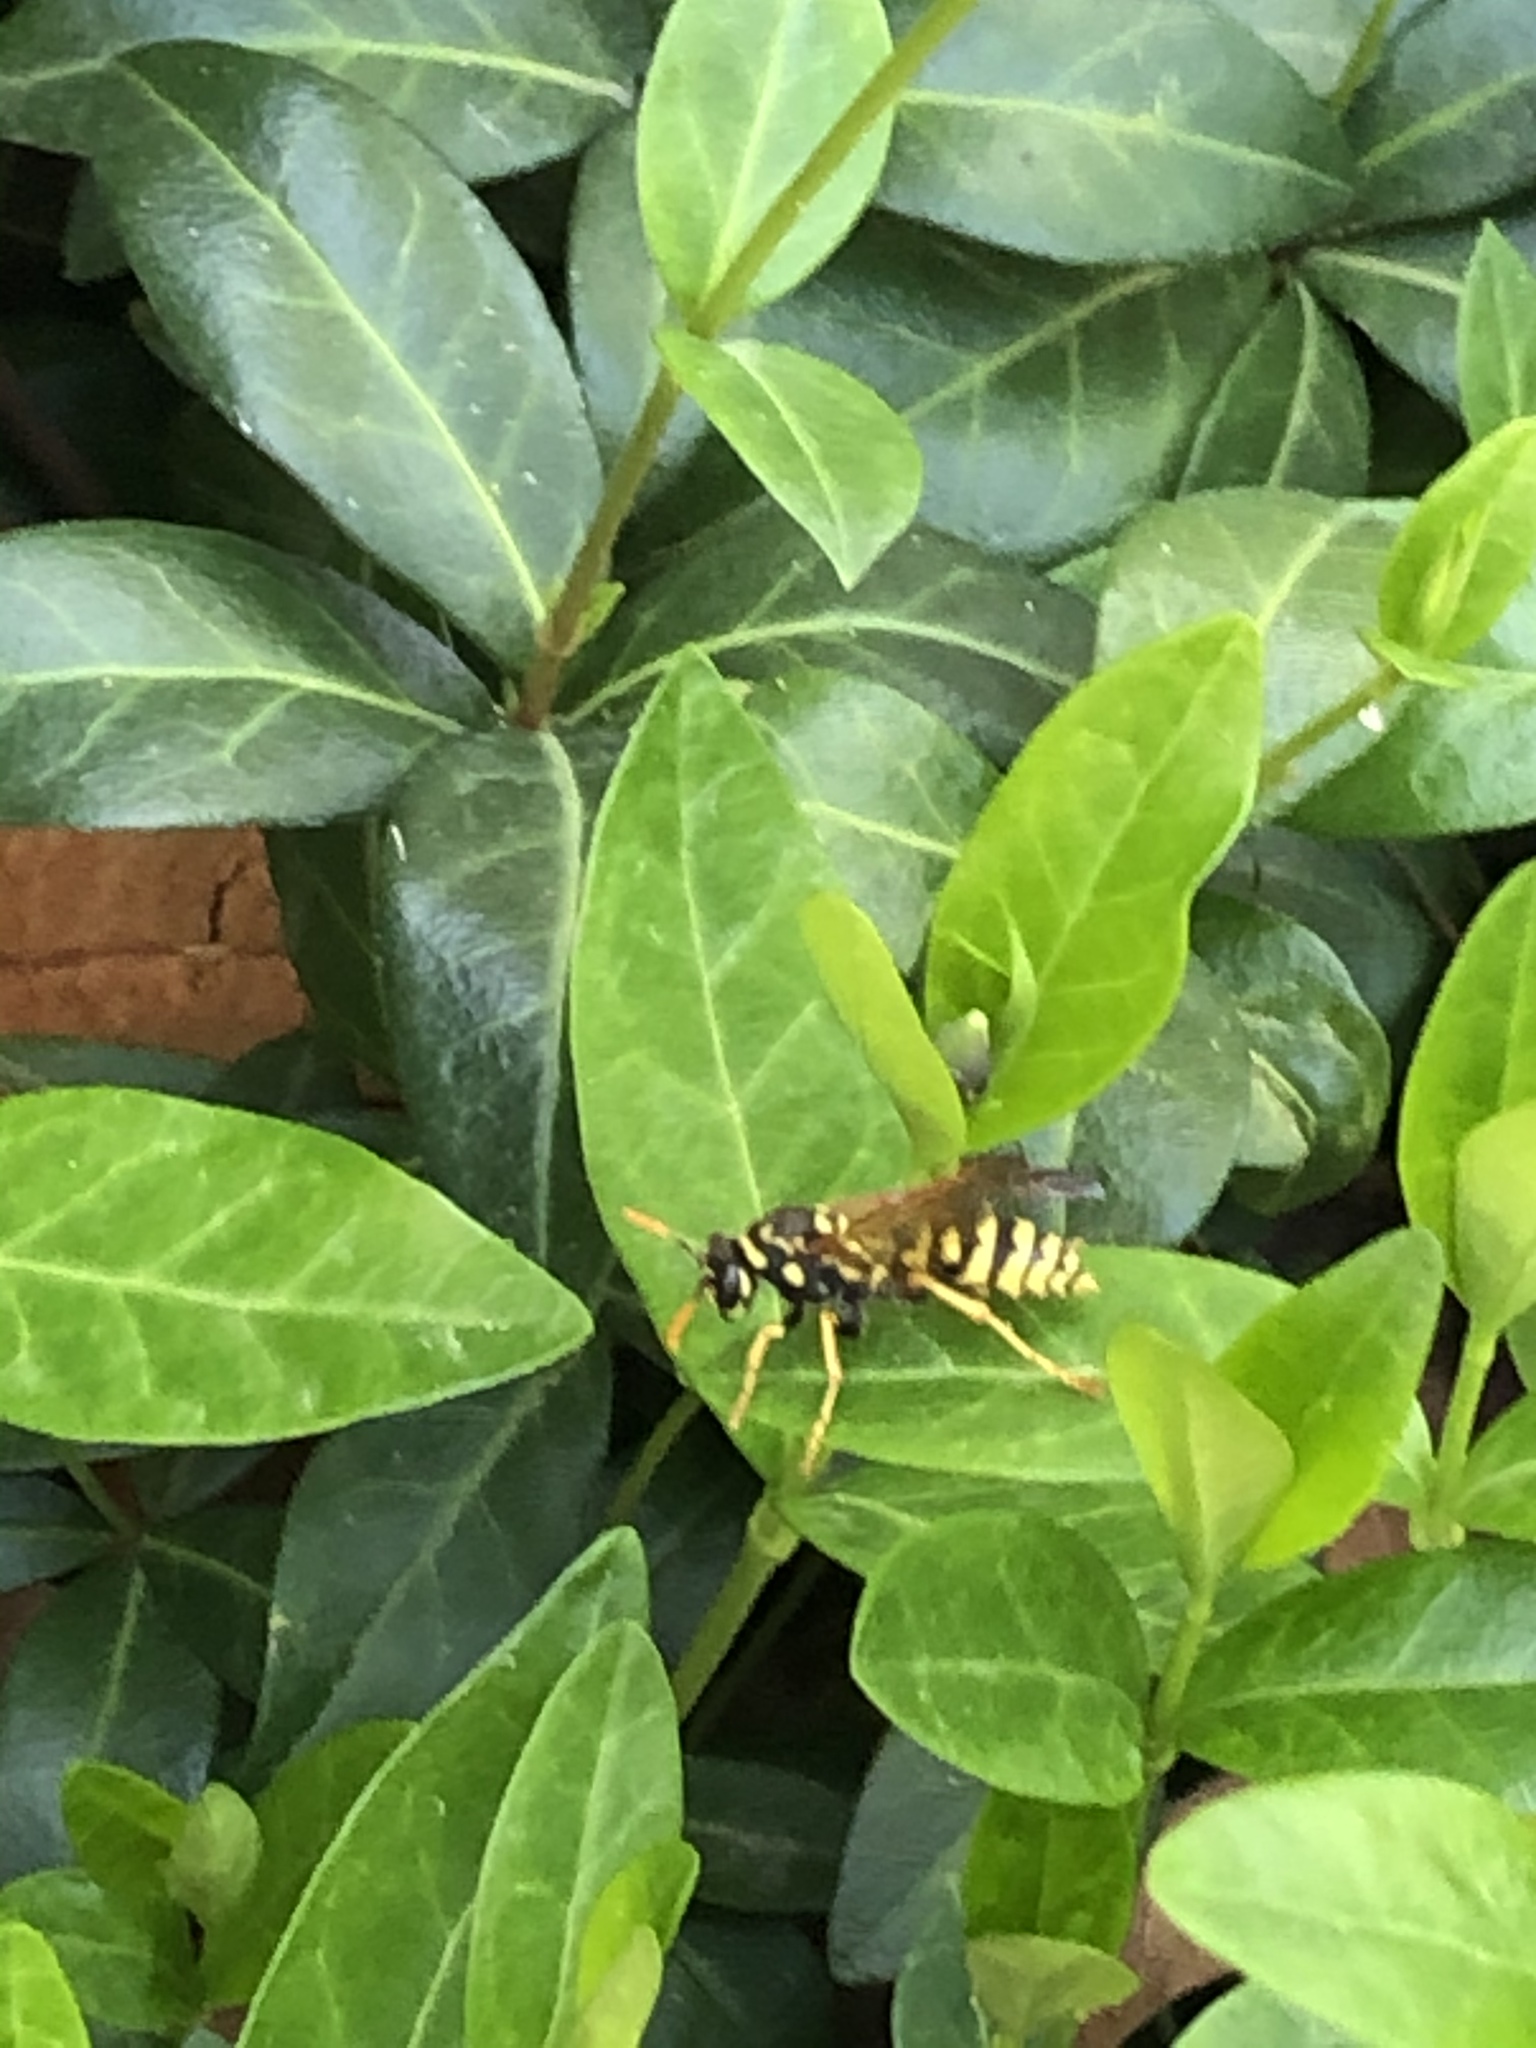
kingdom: Animalia
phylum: Arthropoda
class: Insecta
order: Hymenoptera
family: Eumenidae
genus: Polistes
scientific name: Polistes dominula
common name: Paper wasp
